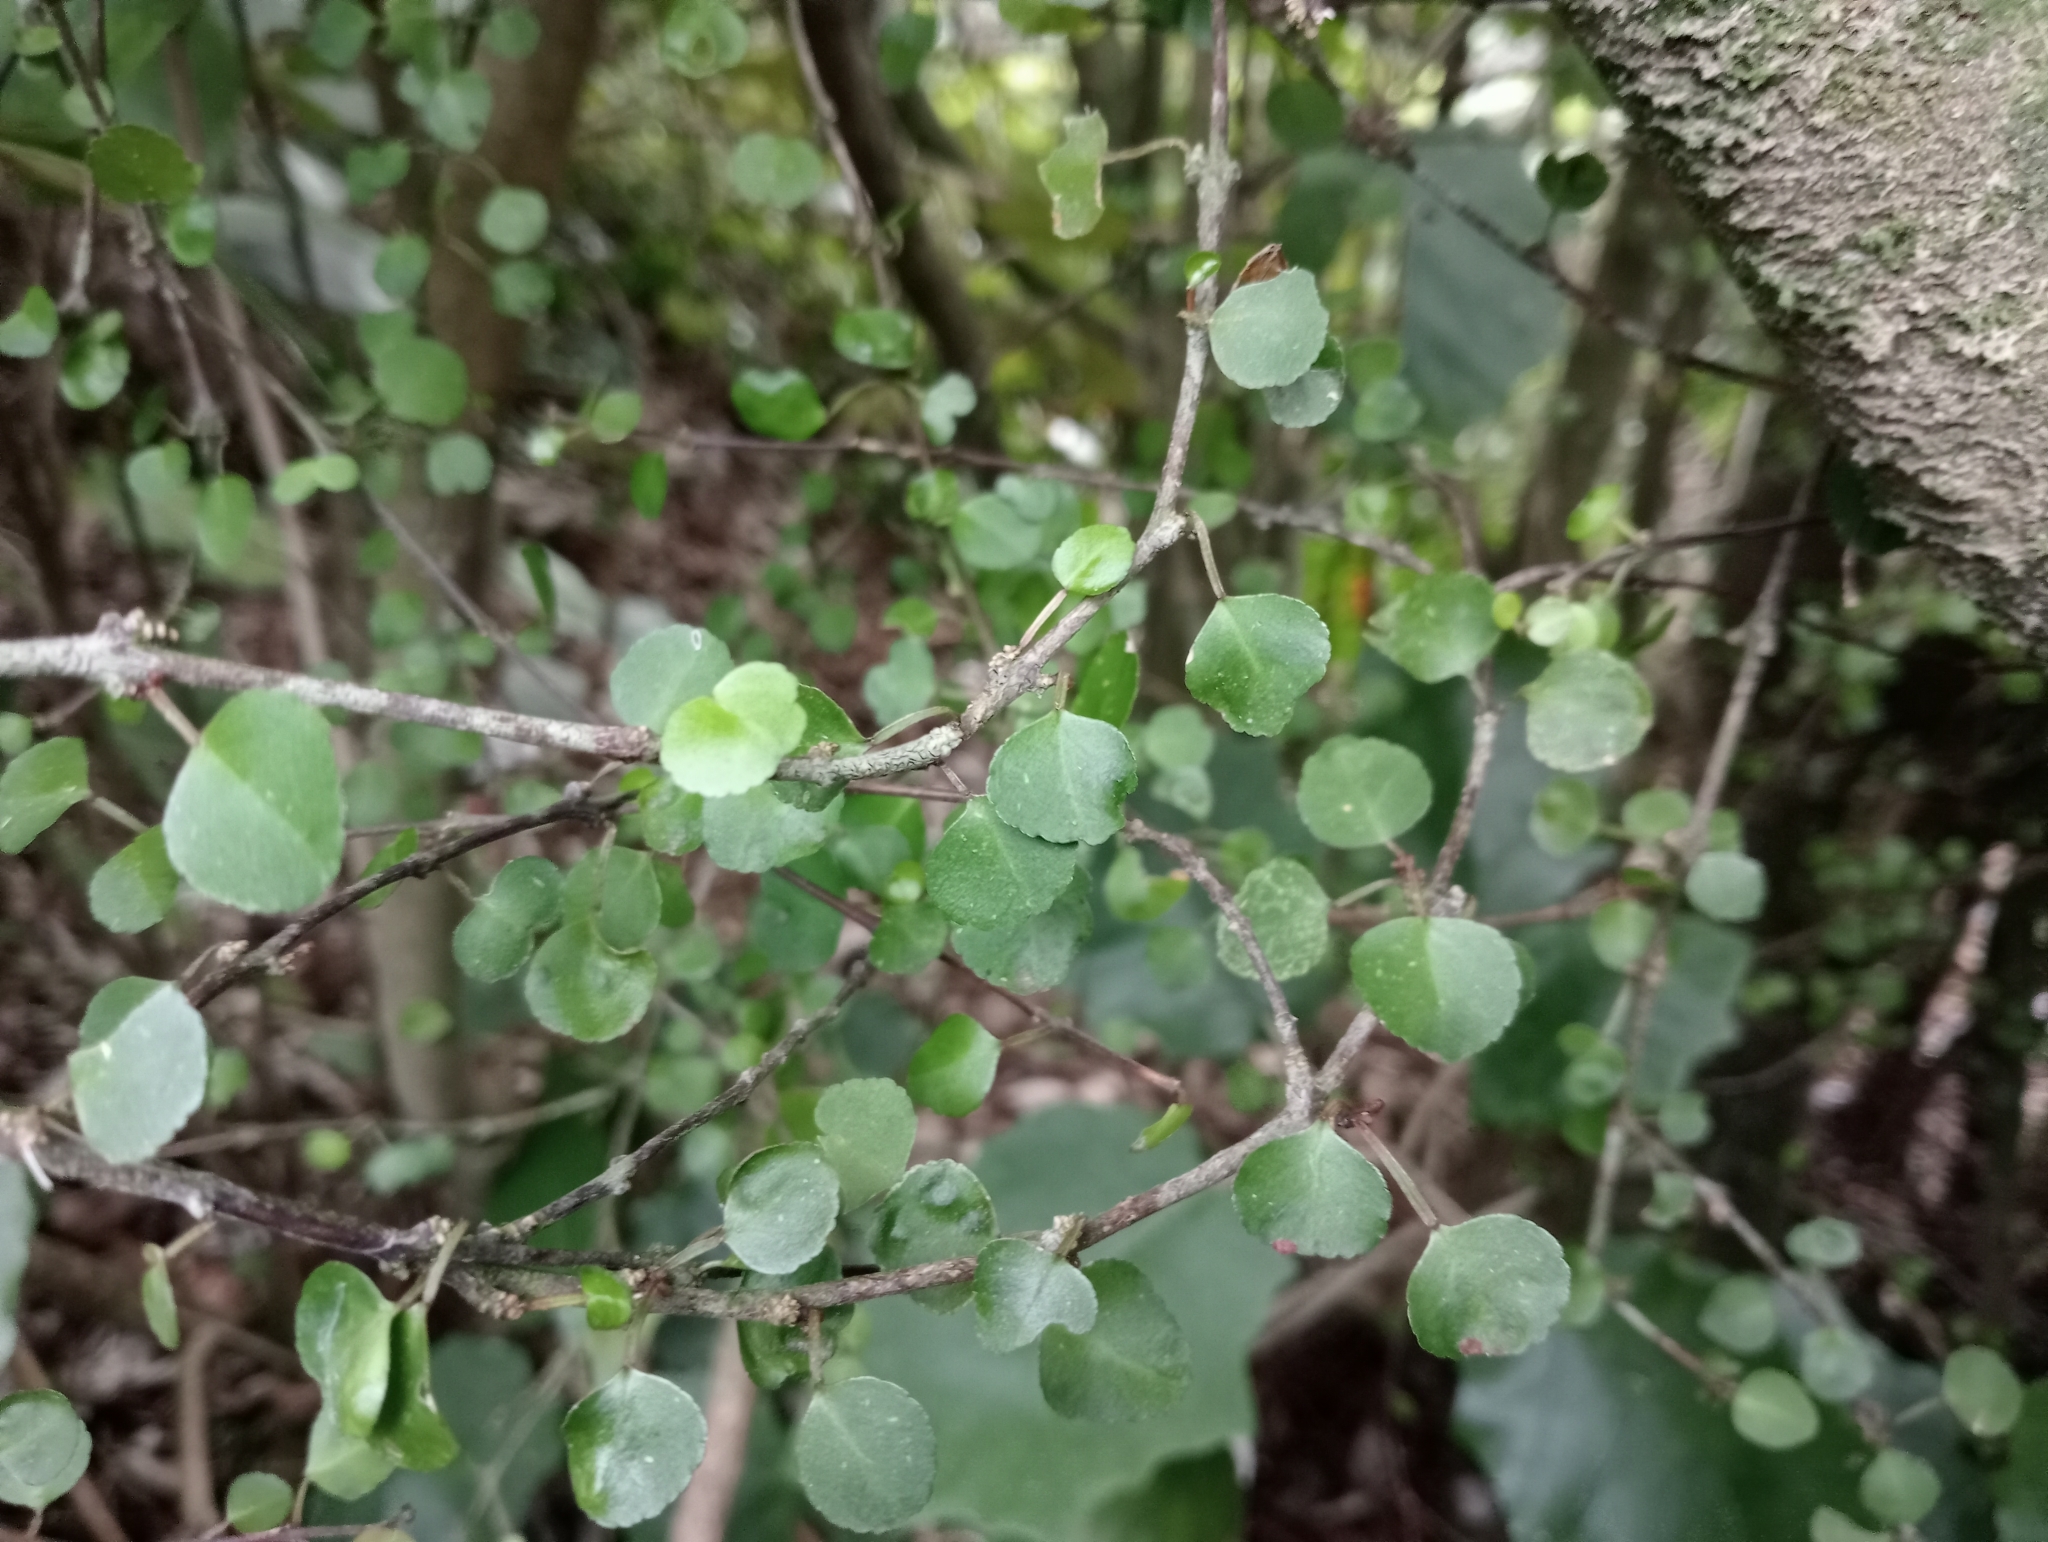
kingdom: Plantae
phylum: Tracheophyta
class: Magnoliopsida
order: Sapindales
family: Rutaceae
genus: Melicope
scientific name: Melicope simplex
